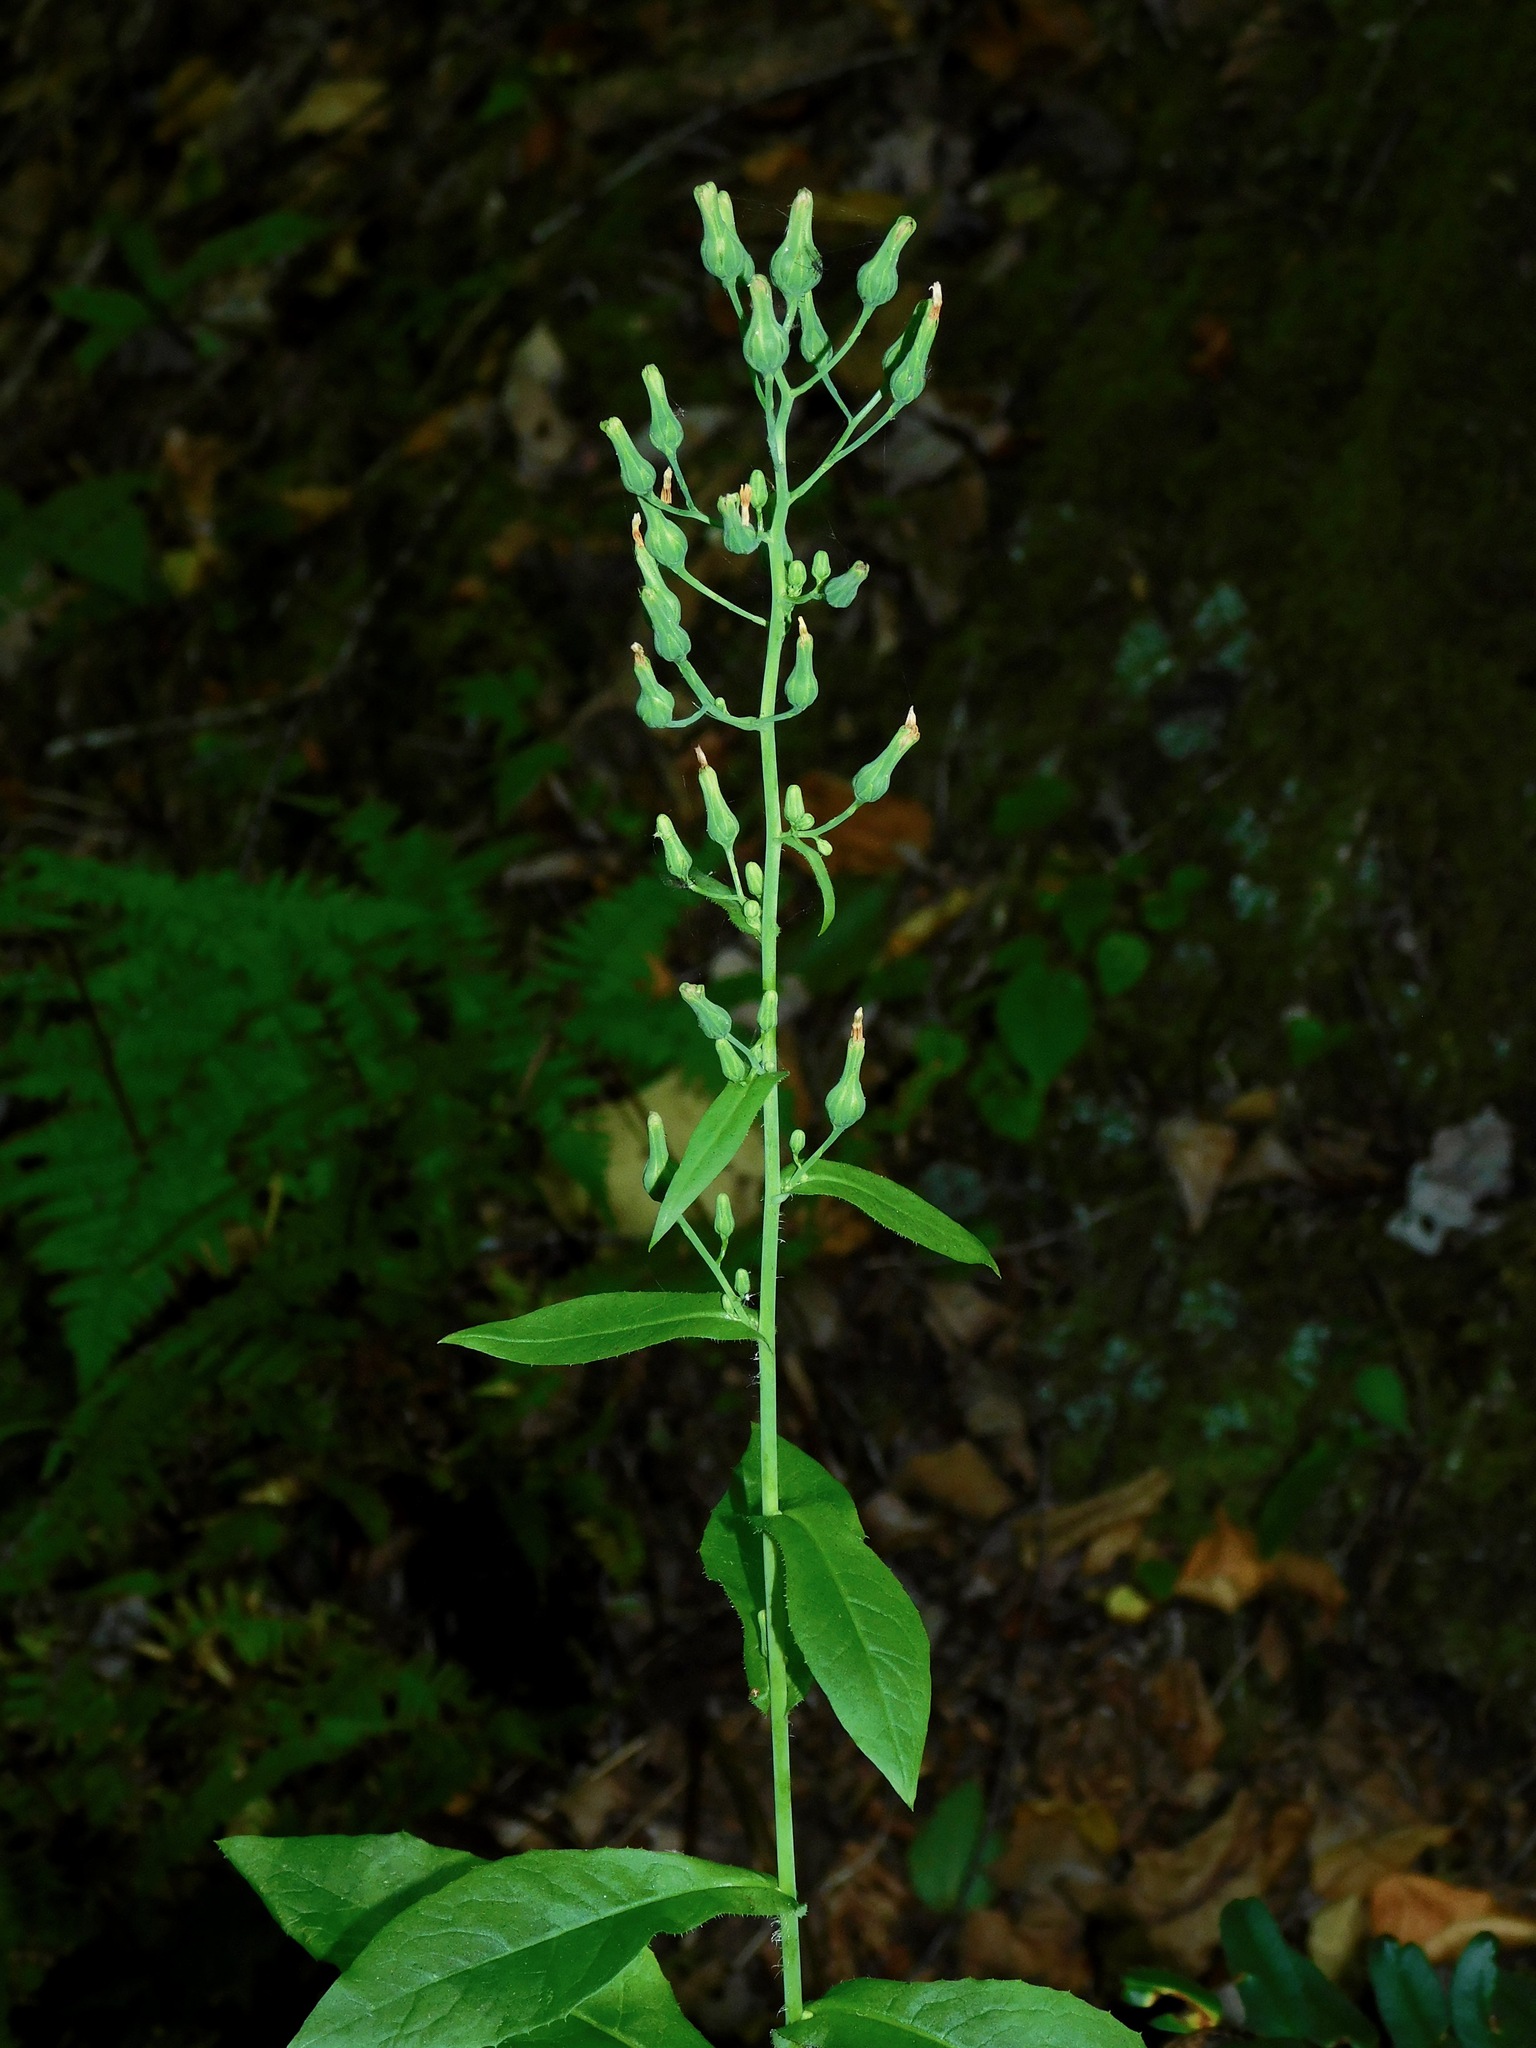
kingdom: Plantae
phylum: Tracheophyta
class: Magnoliopsida
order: Asterales
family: Asteraceae
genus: Lactuca
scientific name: Lactuca floridana
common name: Woodland lettuce
